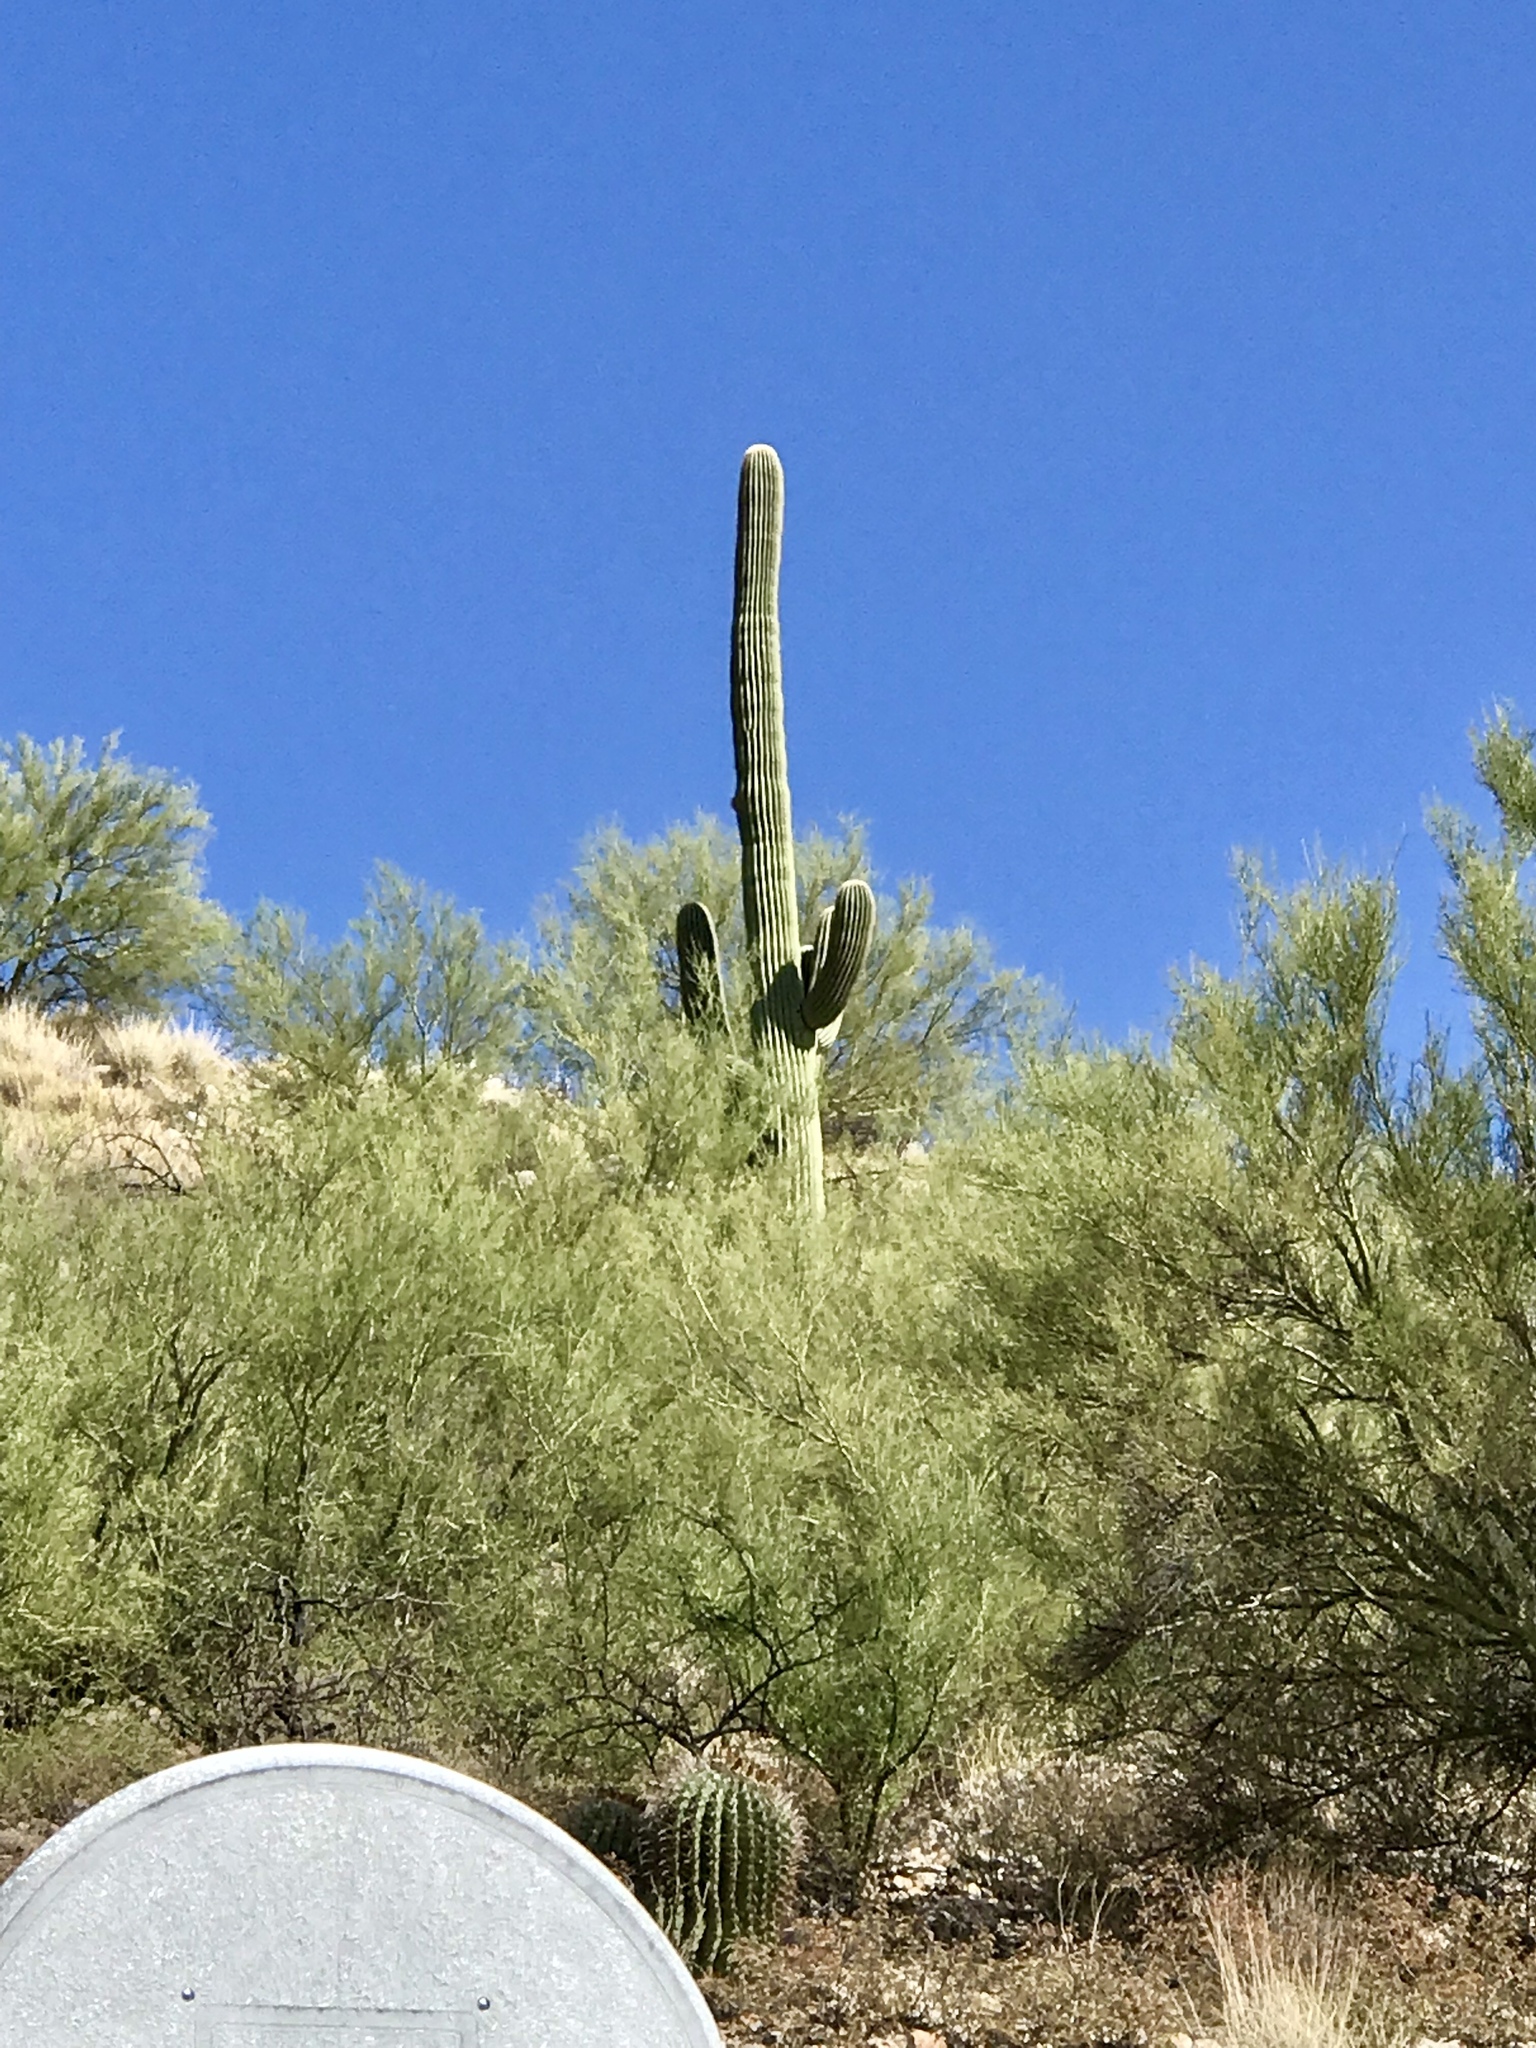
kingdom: Plantae
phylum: Tracheophyta
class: Magnoliopsida
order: Caryophyllales
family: Cactaceae
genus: Carnegiea
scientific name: Carnegiea gigantea
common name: Saguaro
